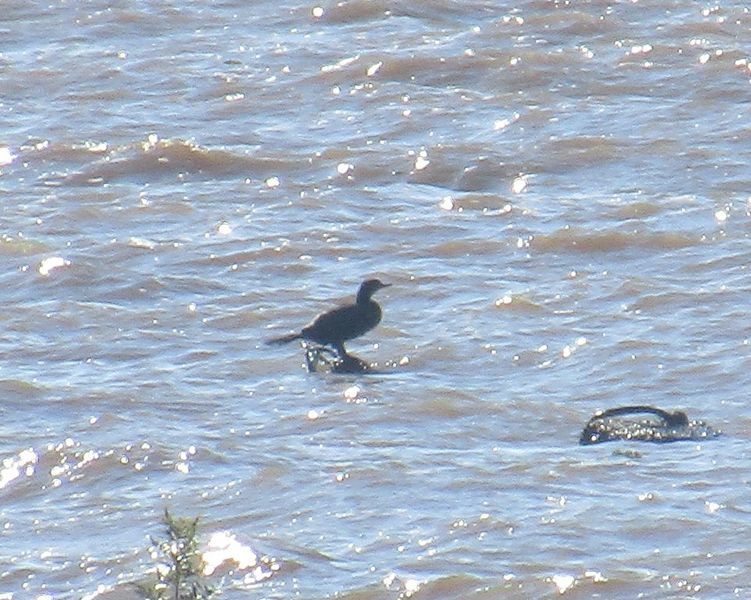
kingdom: Animalia
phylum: Chordata
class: Aves
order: Suliformes
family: Phalacrocoracidae
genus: Phalacrocorax
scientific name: Phalacrocorax brasilianus
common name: Neotropic cormorant
